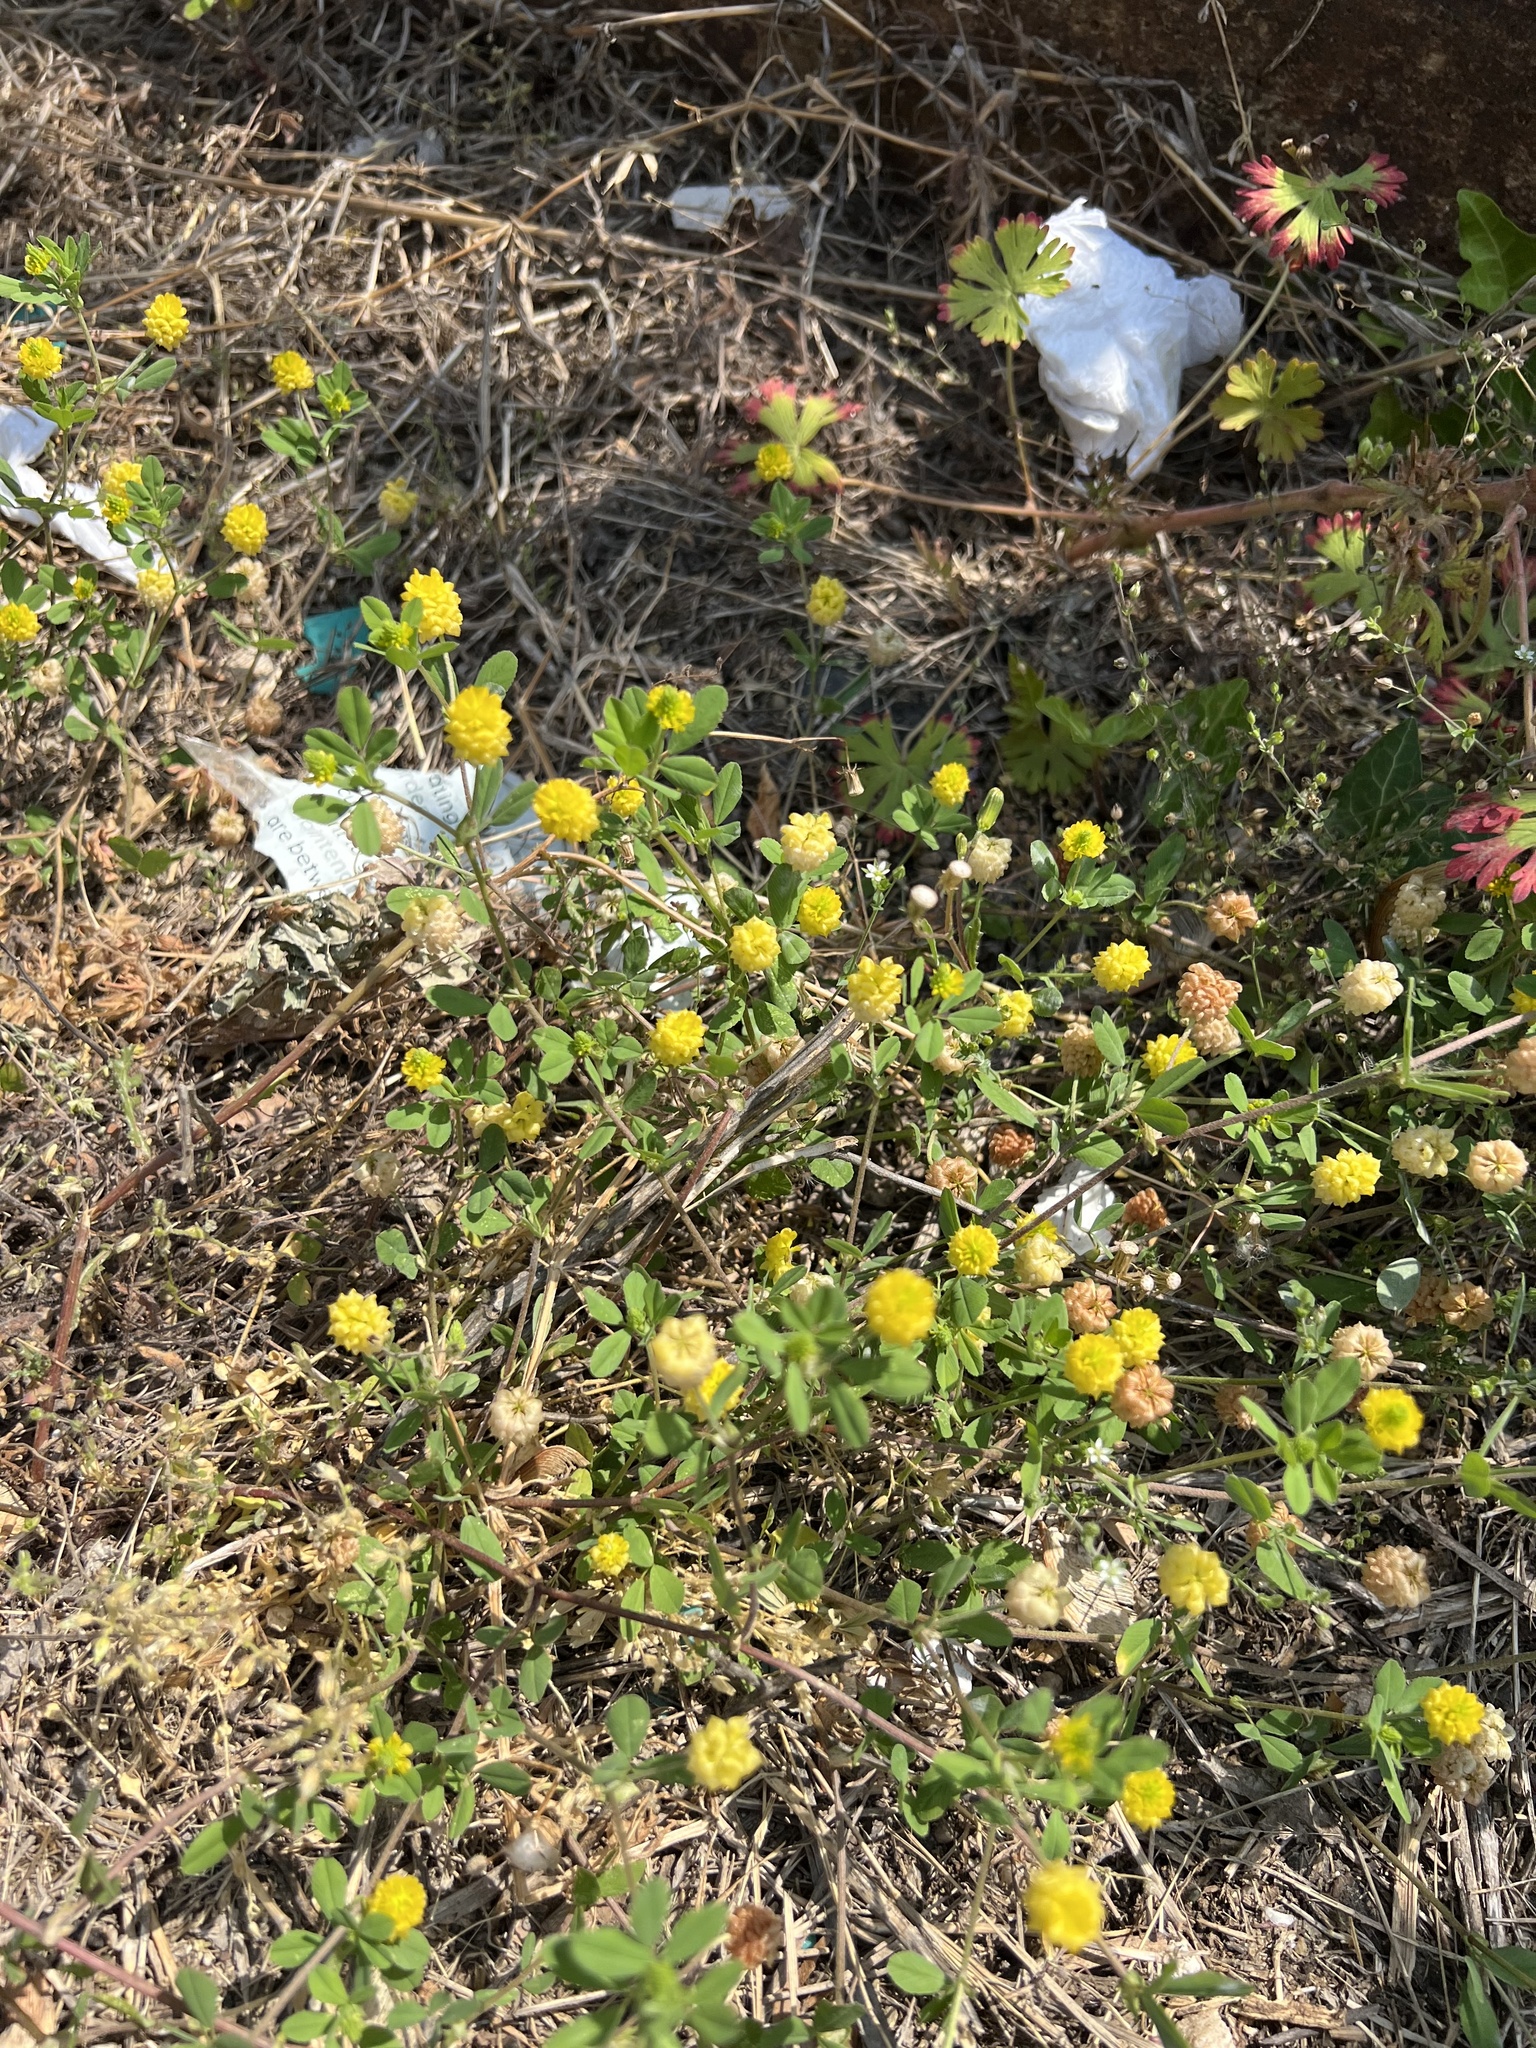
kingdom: Plantae
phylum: Tracheophyta
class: Magnoliopsida
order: Fabales
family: Fabaceae
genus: Trifolium
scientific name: Trifolium campestre
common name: Field clover
